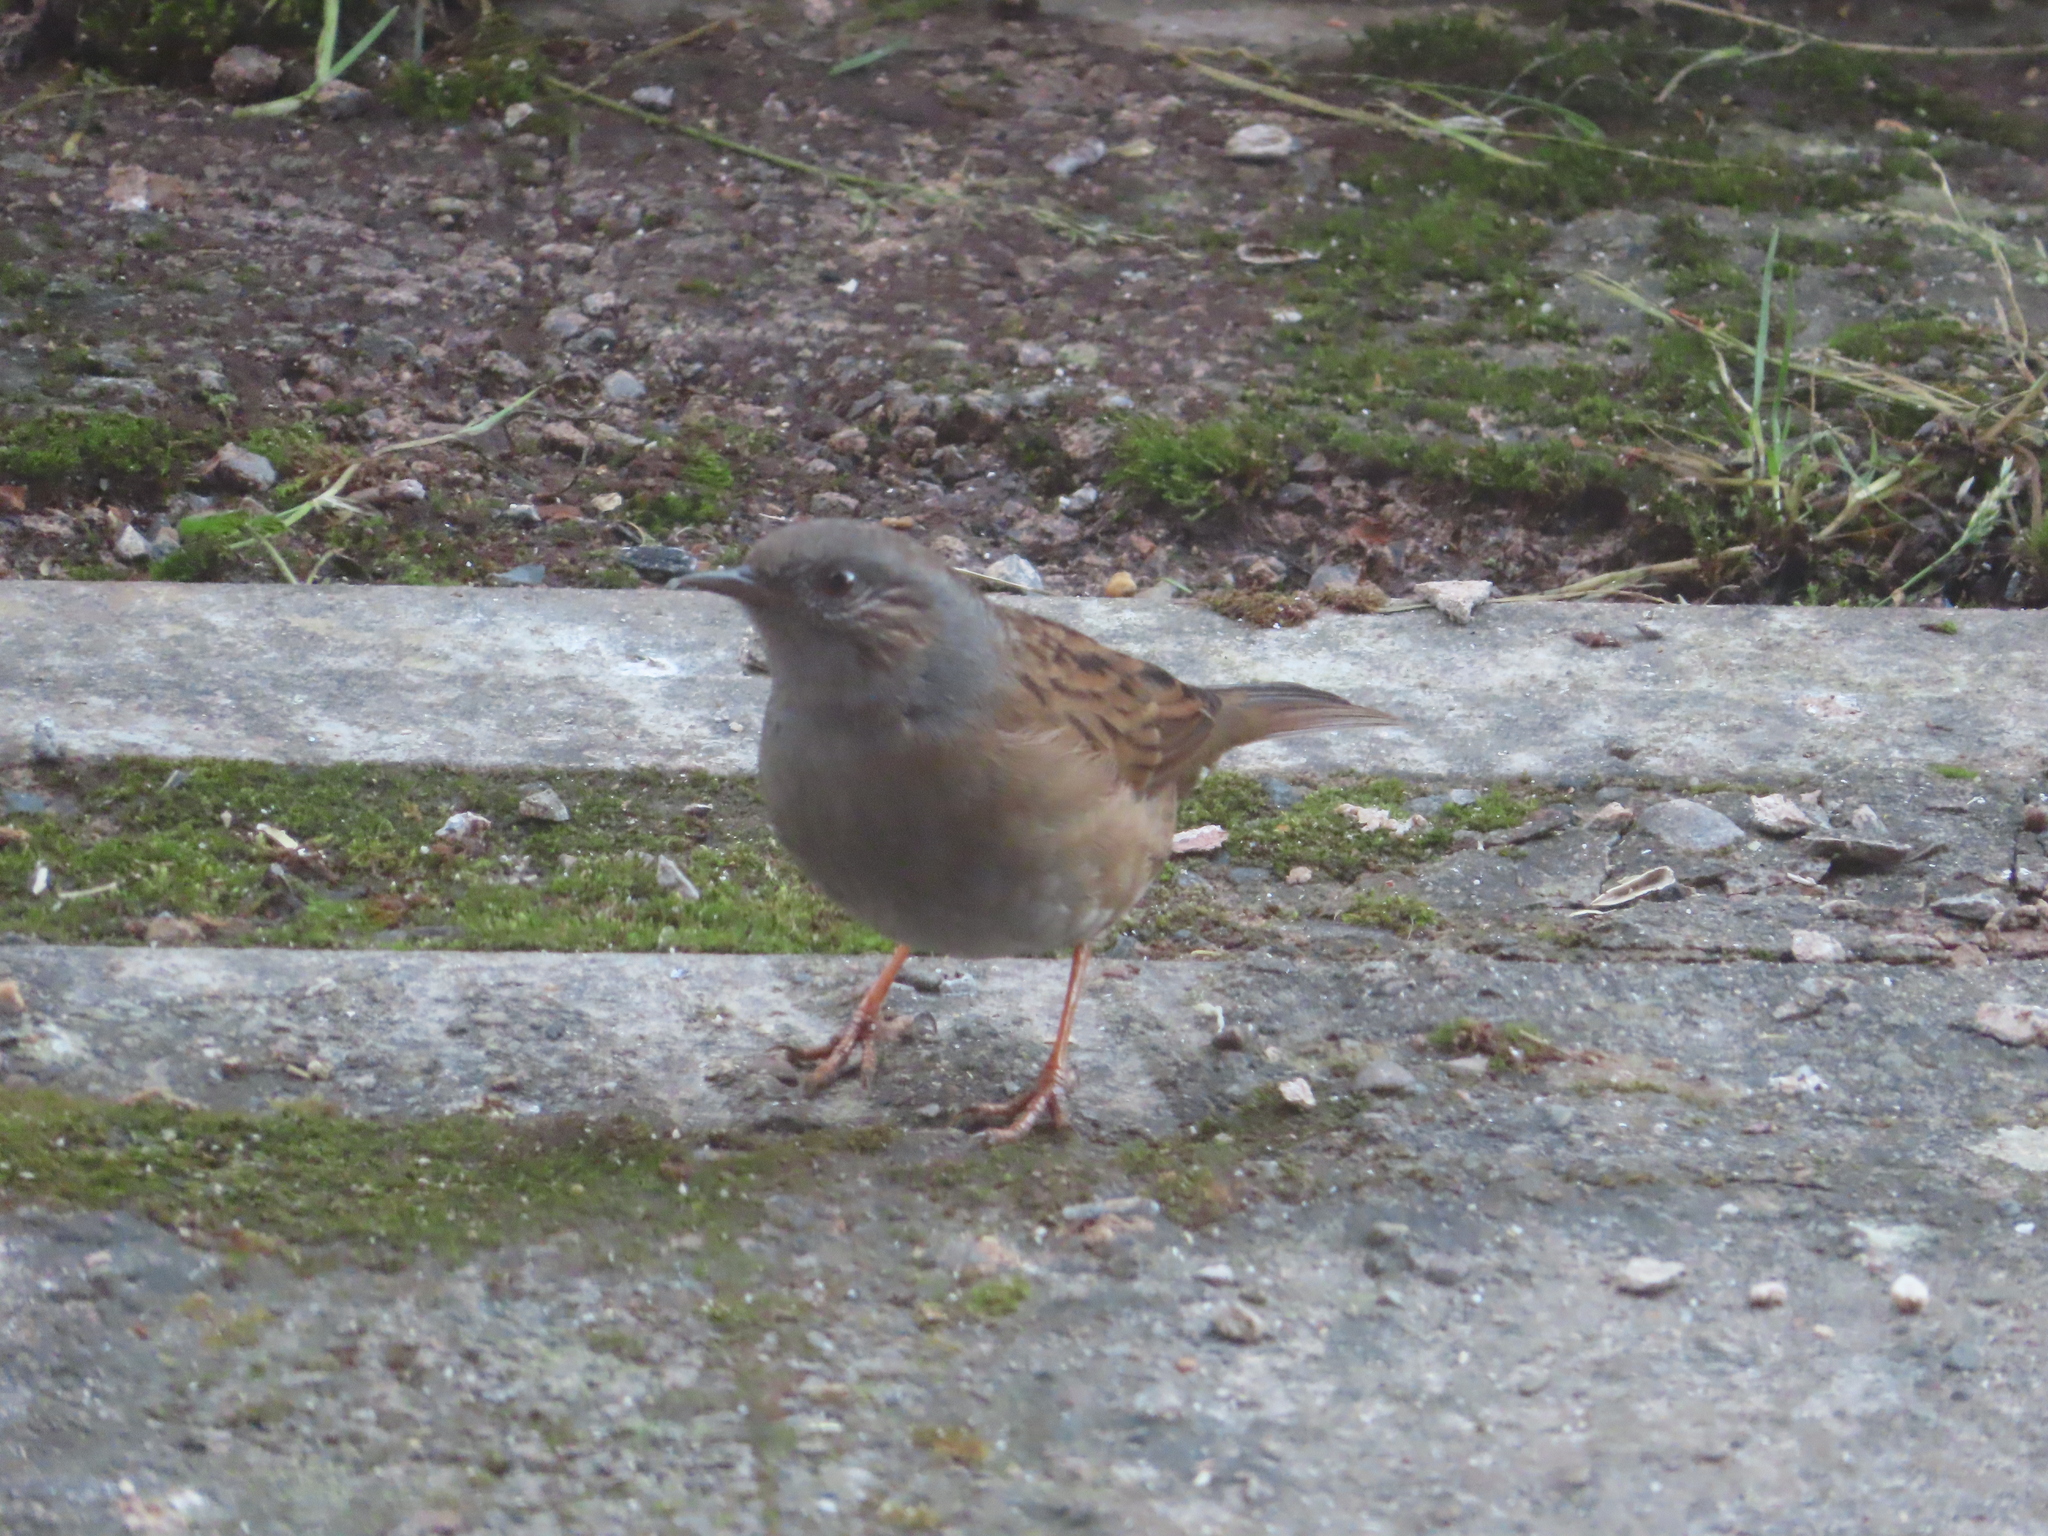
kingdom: Animalia
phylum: Chordata
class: Aves
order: Passeriformes
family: Prunellidae
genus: Prunella
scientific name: Prunella modularis
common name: Dunnock
